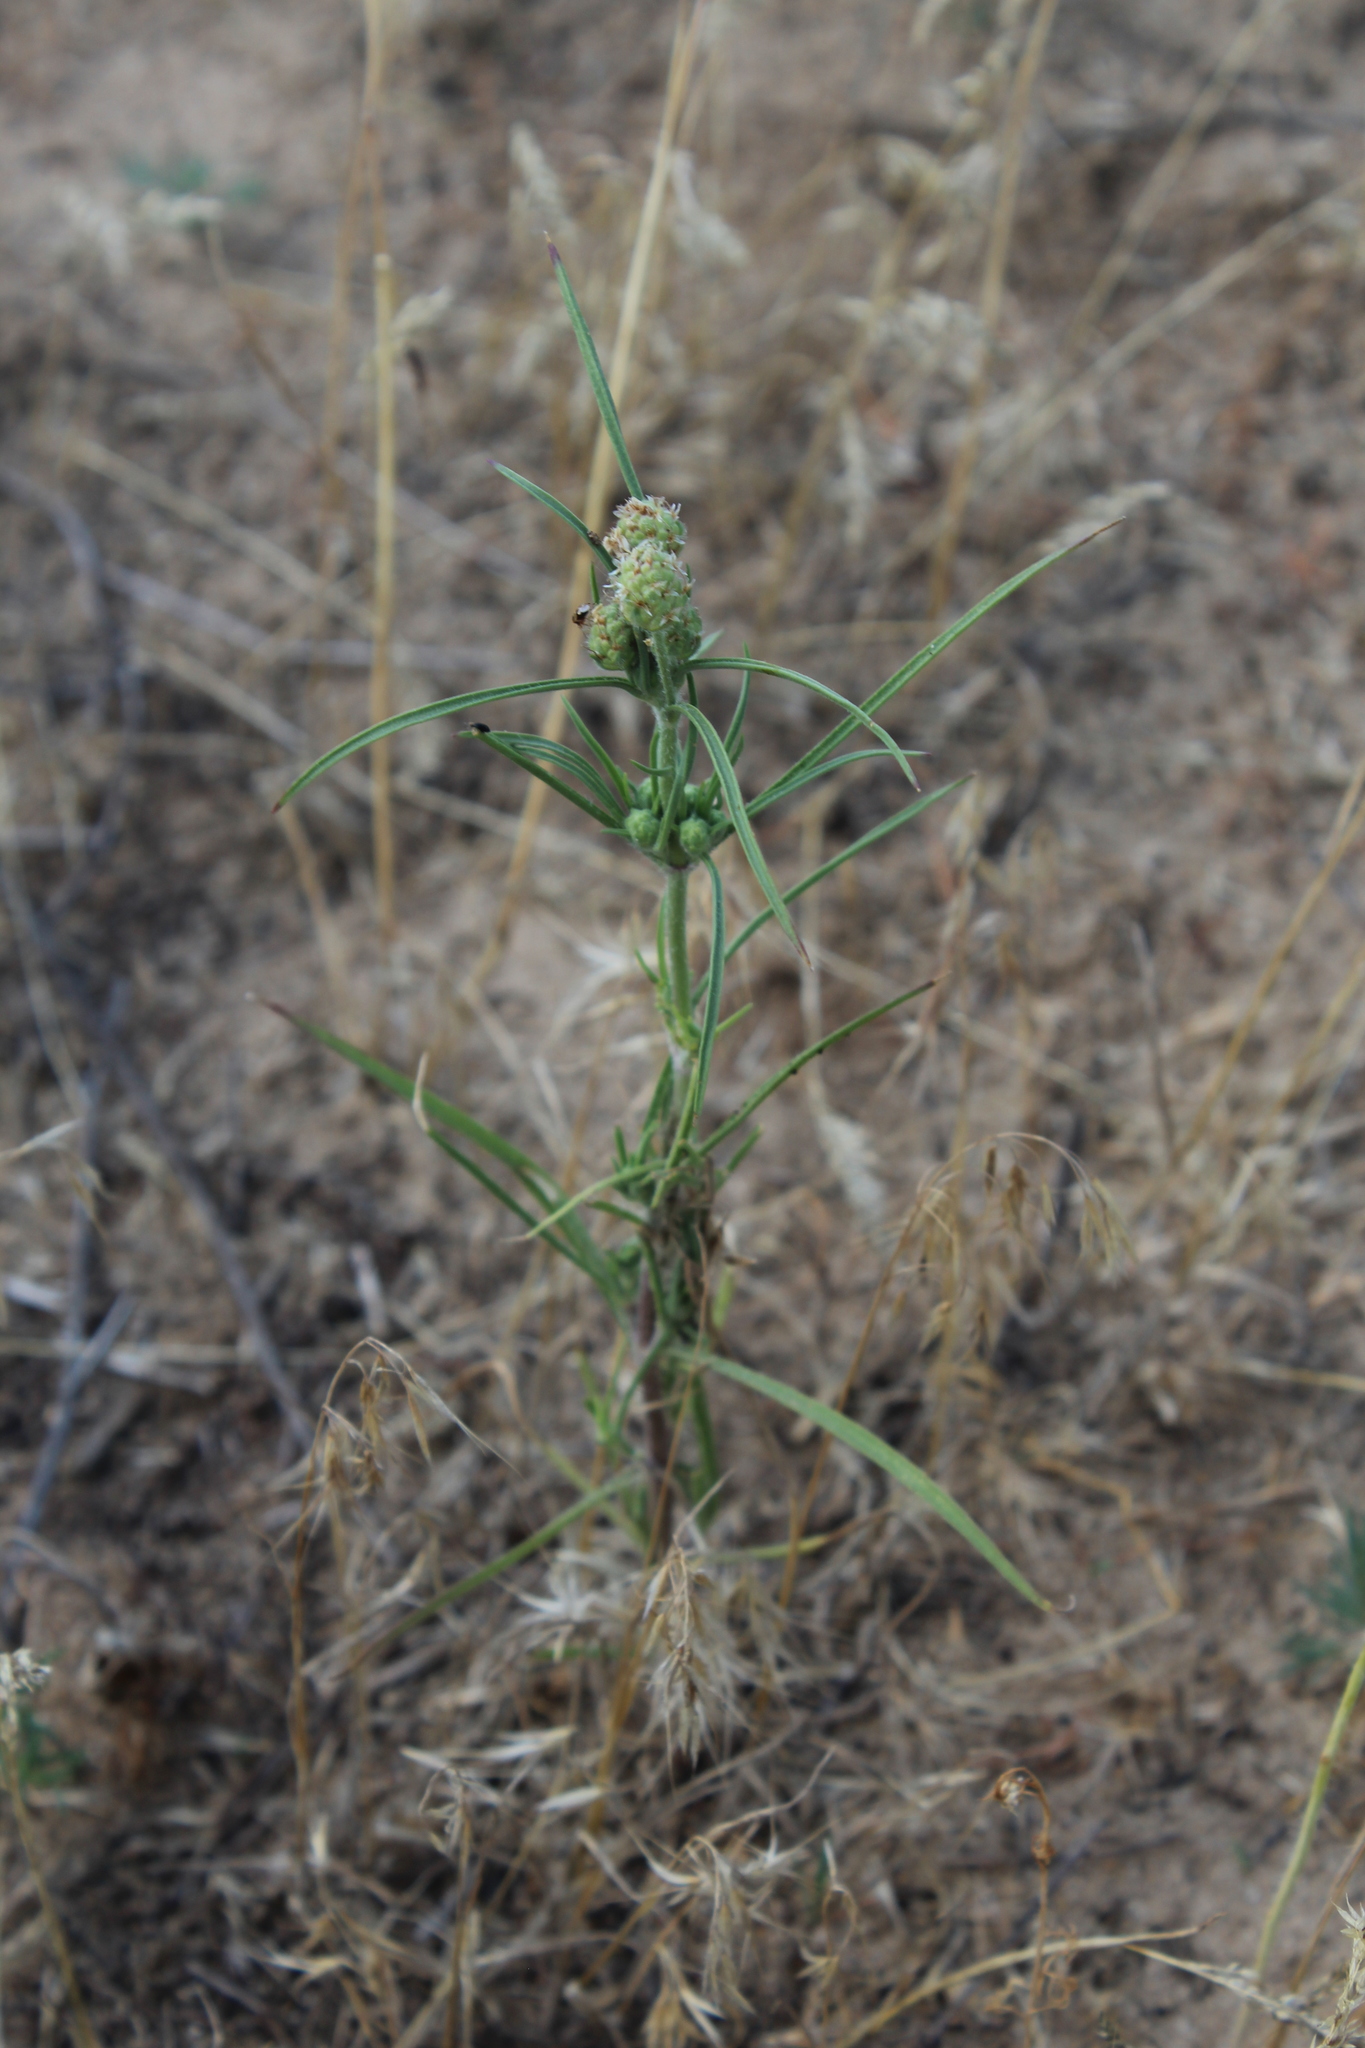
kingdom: Plantae
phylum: Tracheophyta
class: Magnoliopsida
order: Lamiales
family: Plantaginaceae
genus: Plantago
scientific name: Plantago arenaria
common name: Branched plantain
